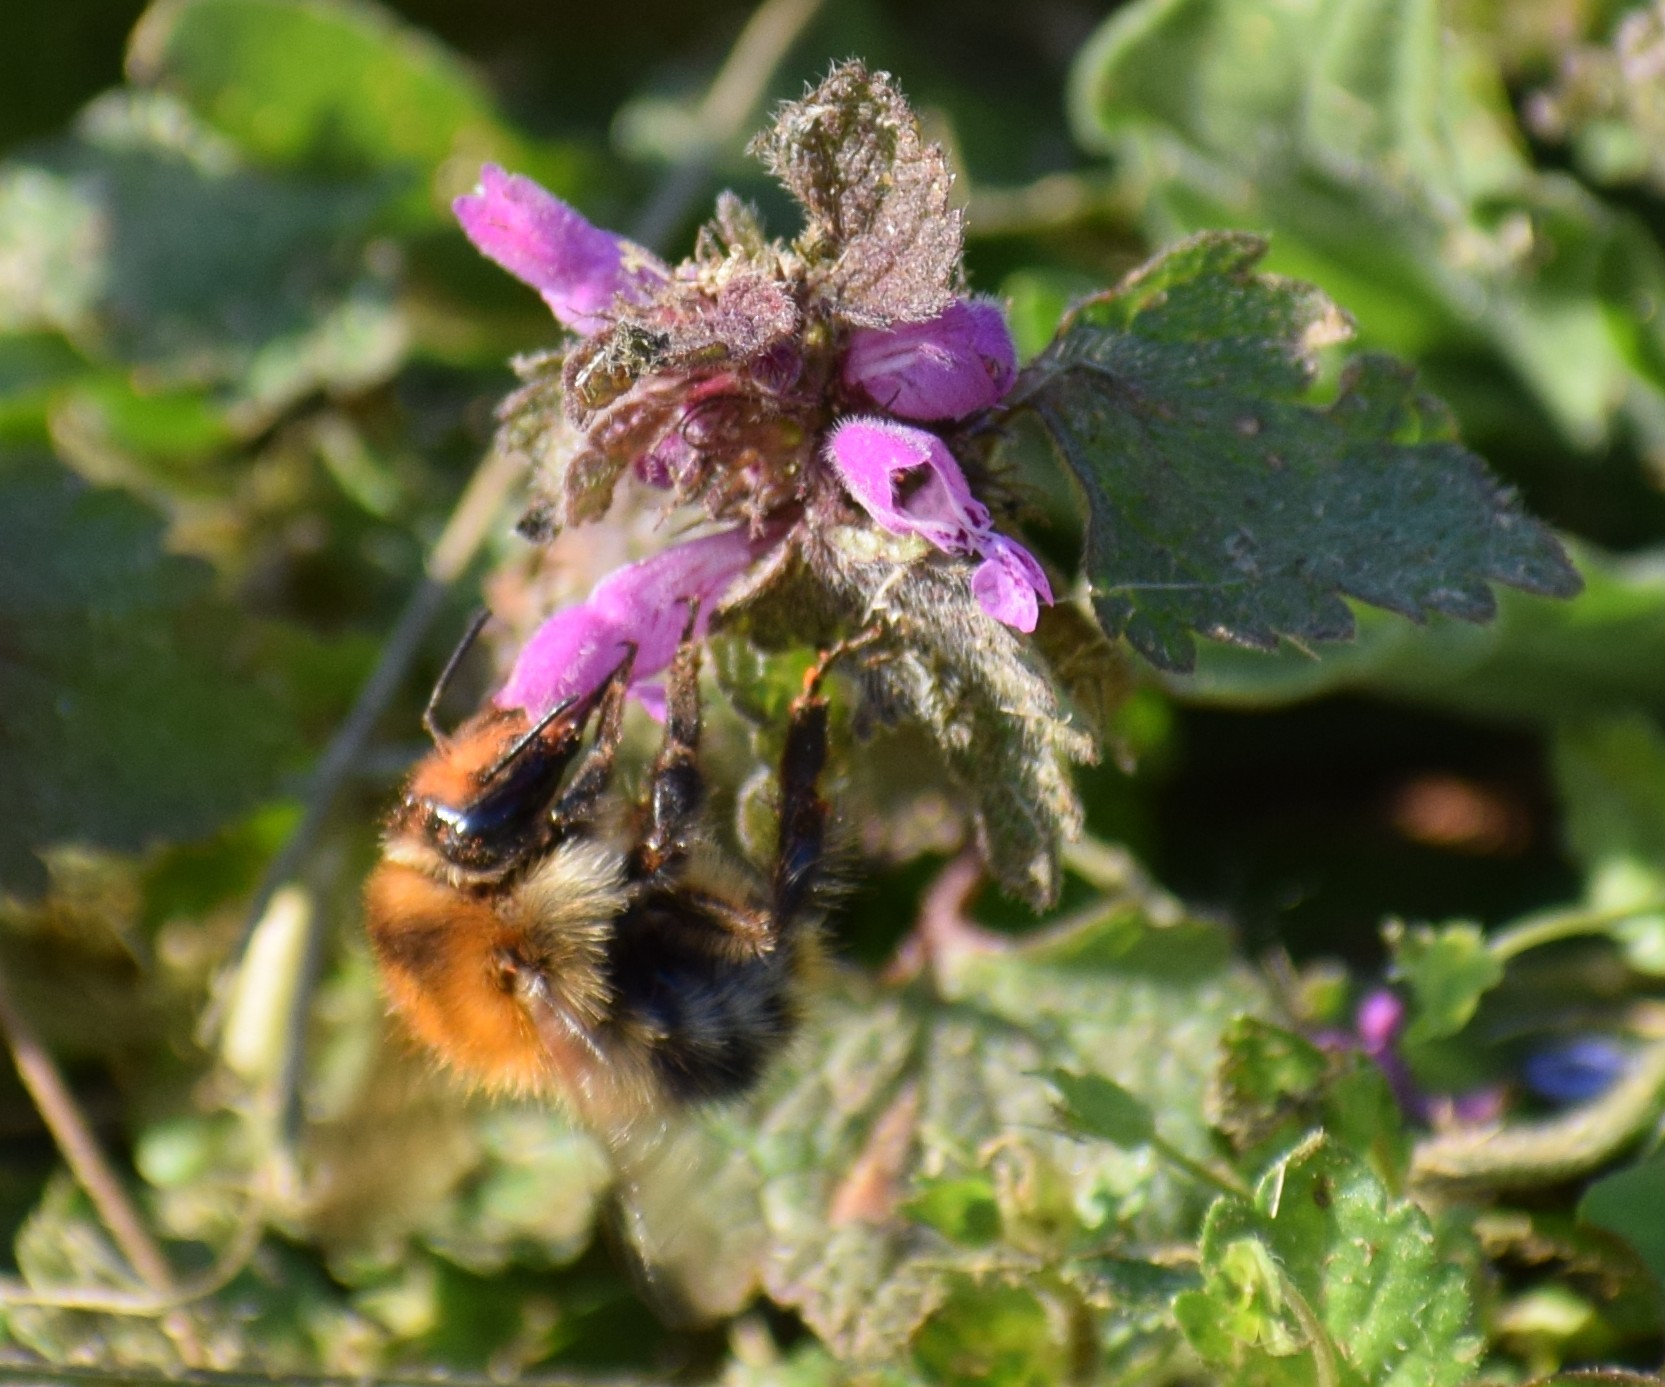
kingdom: Animalia
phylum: Arthropoda
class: Insecta
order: Hymenoptera
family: Apidae
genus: Bombus
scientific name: Bombus pascuorum
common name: Common carder bee
